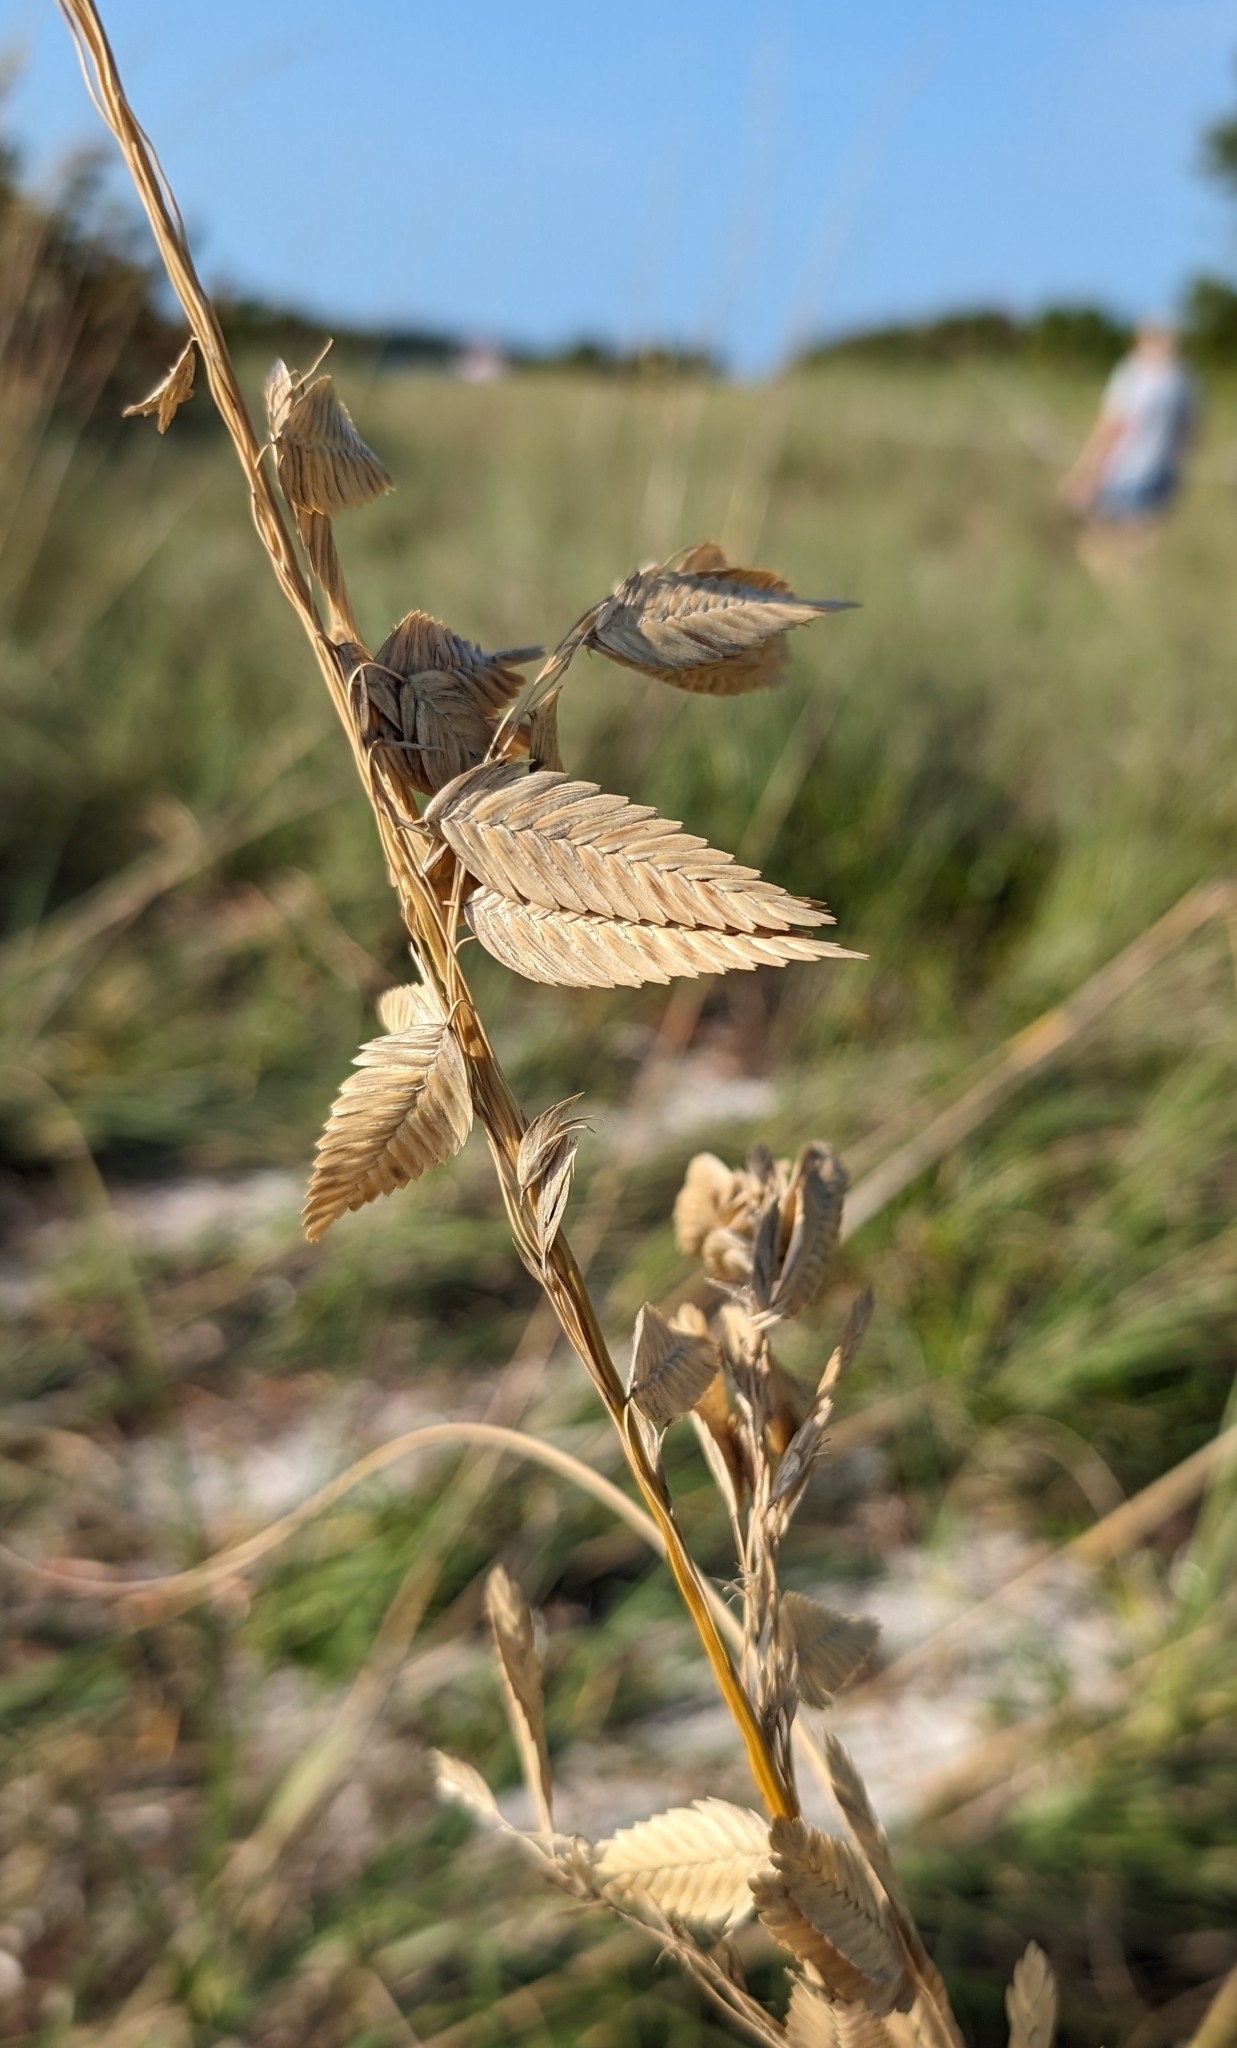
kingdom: Plantae
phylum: Tracheophyta
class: Liliopsida
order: Poales
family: Poaceae
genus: Uniola
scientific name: Uniola paniculata
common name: Seaside-oats
